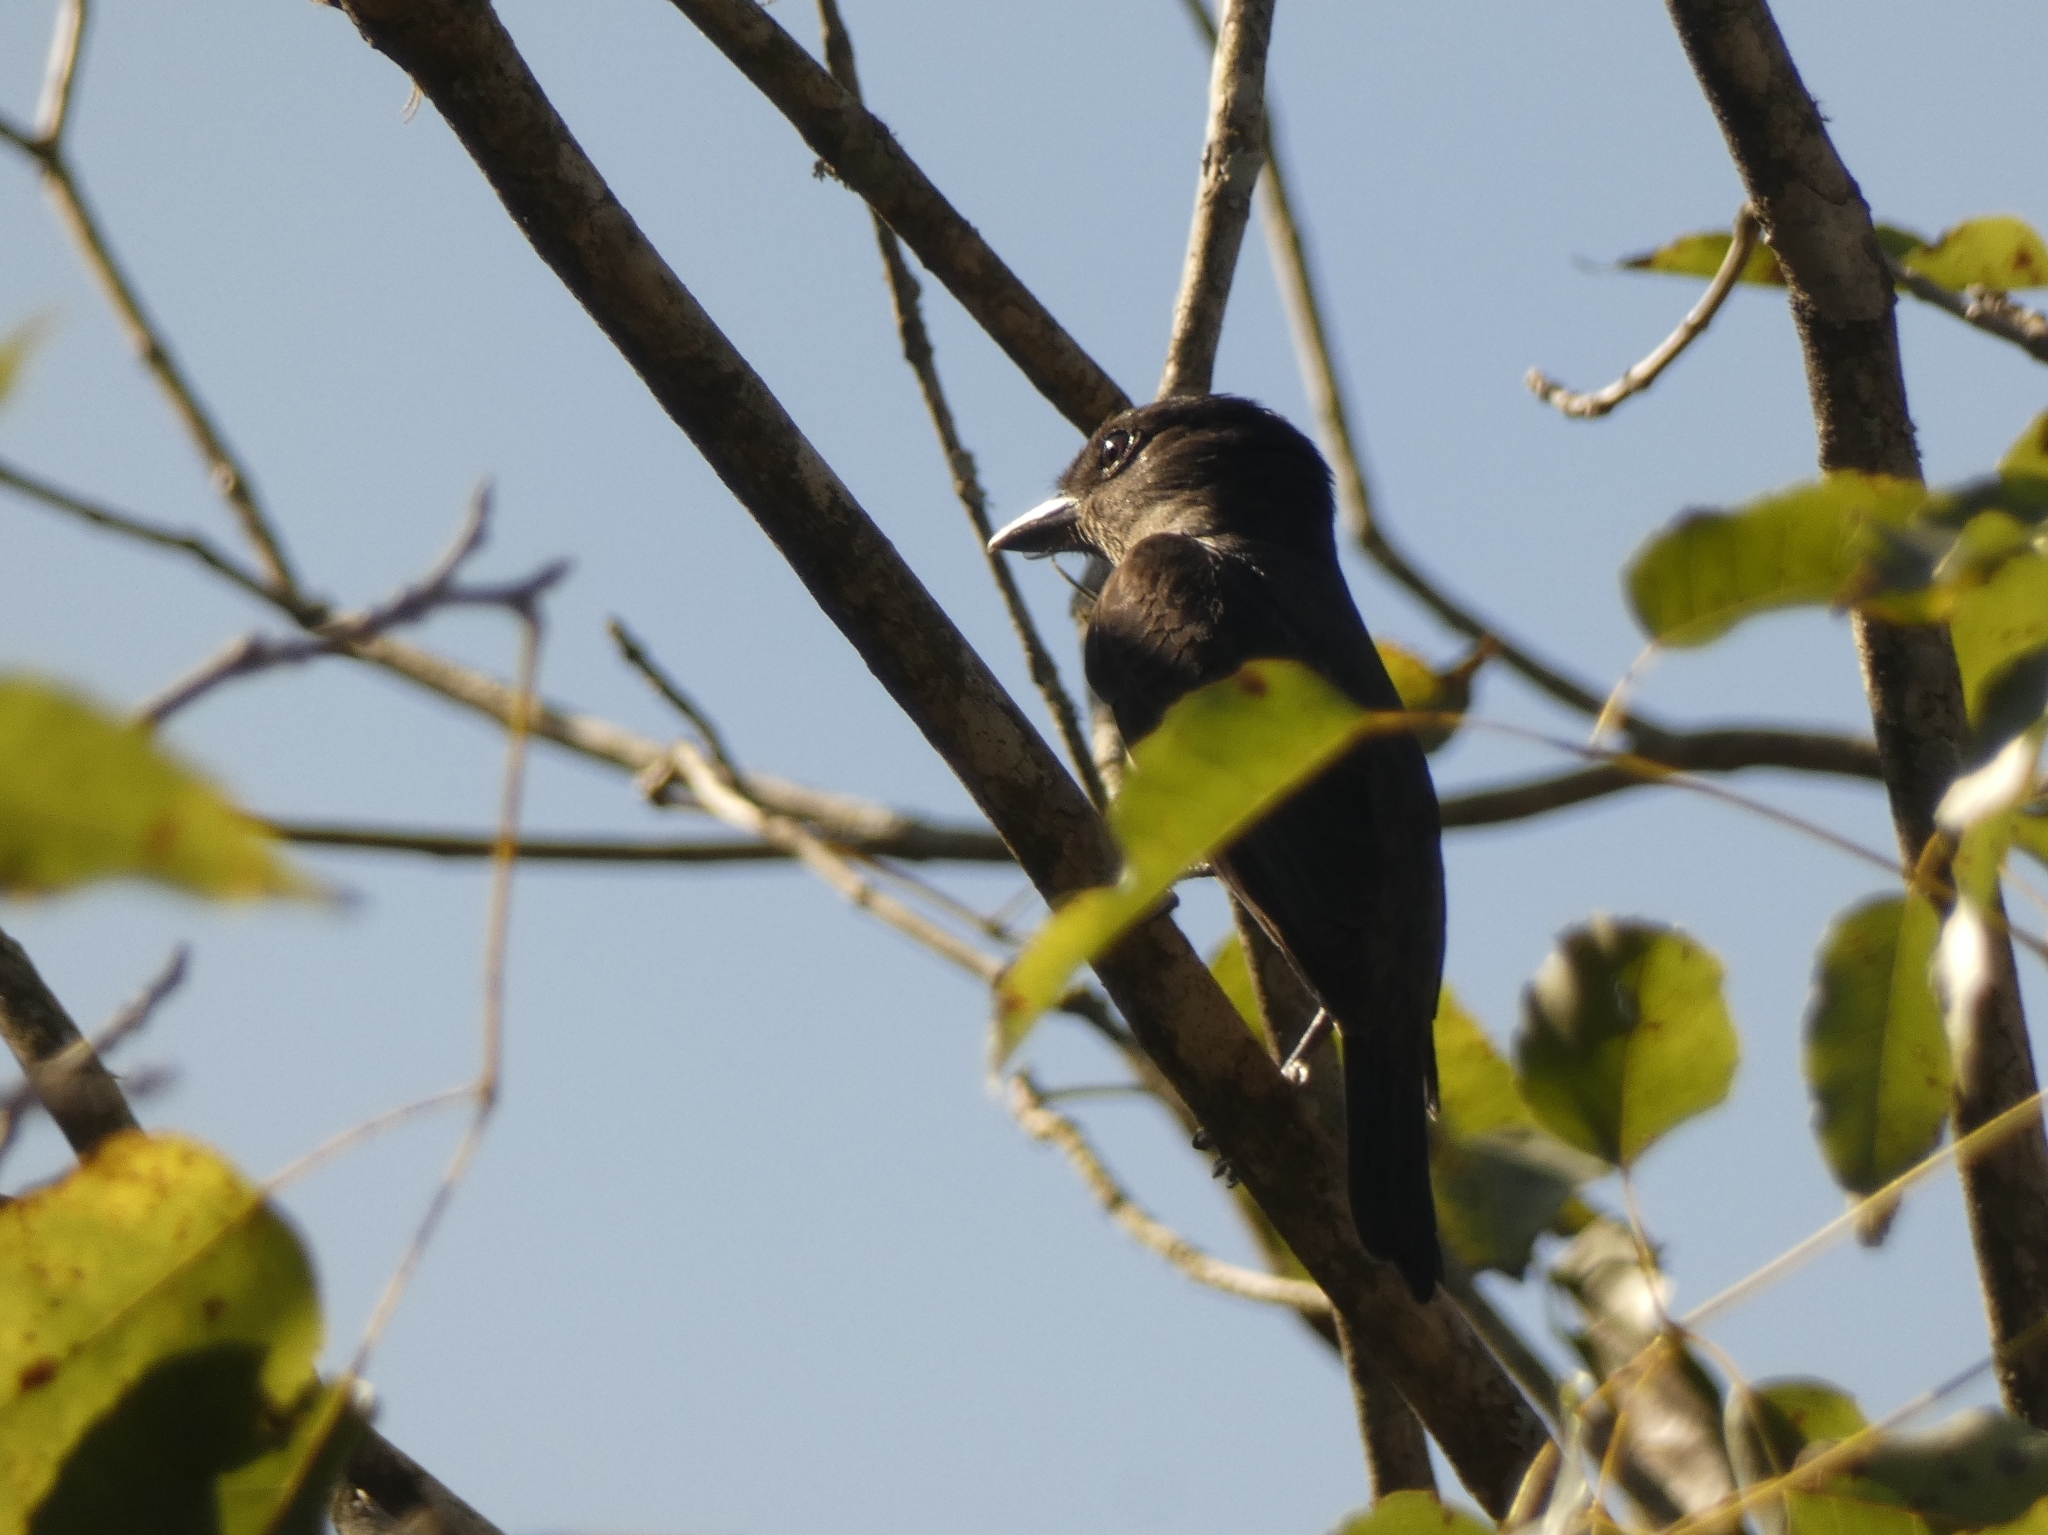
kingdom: Animalia
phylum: Chordata
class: Aves
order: Passeriformes
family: Cotingidae
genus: Pachyramphus
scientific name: Pachyramphus validus
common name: Crested becard
